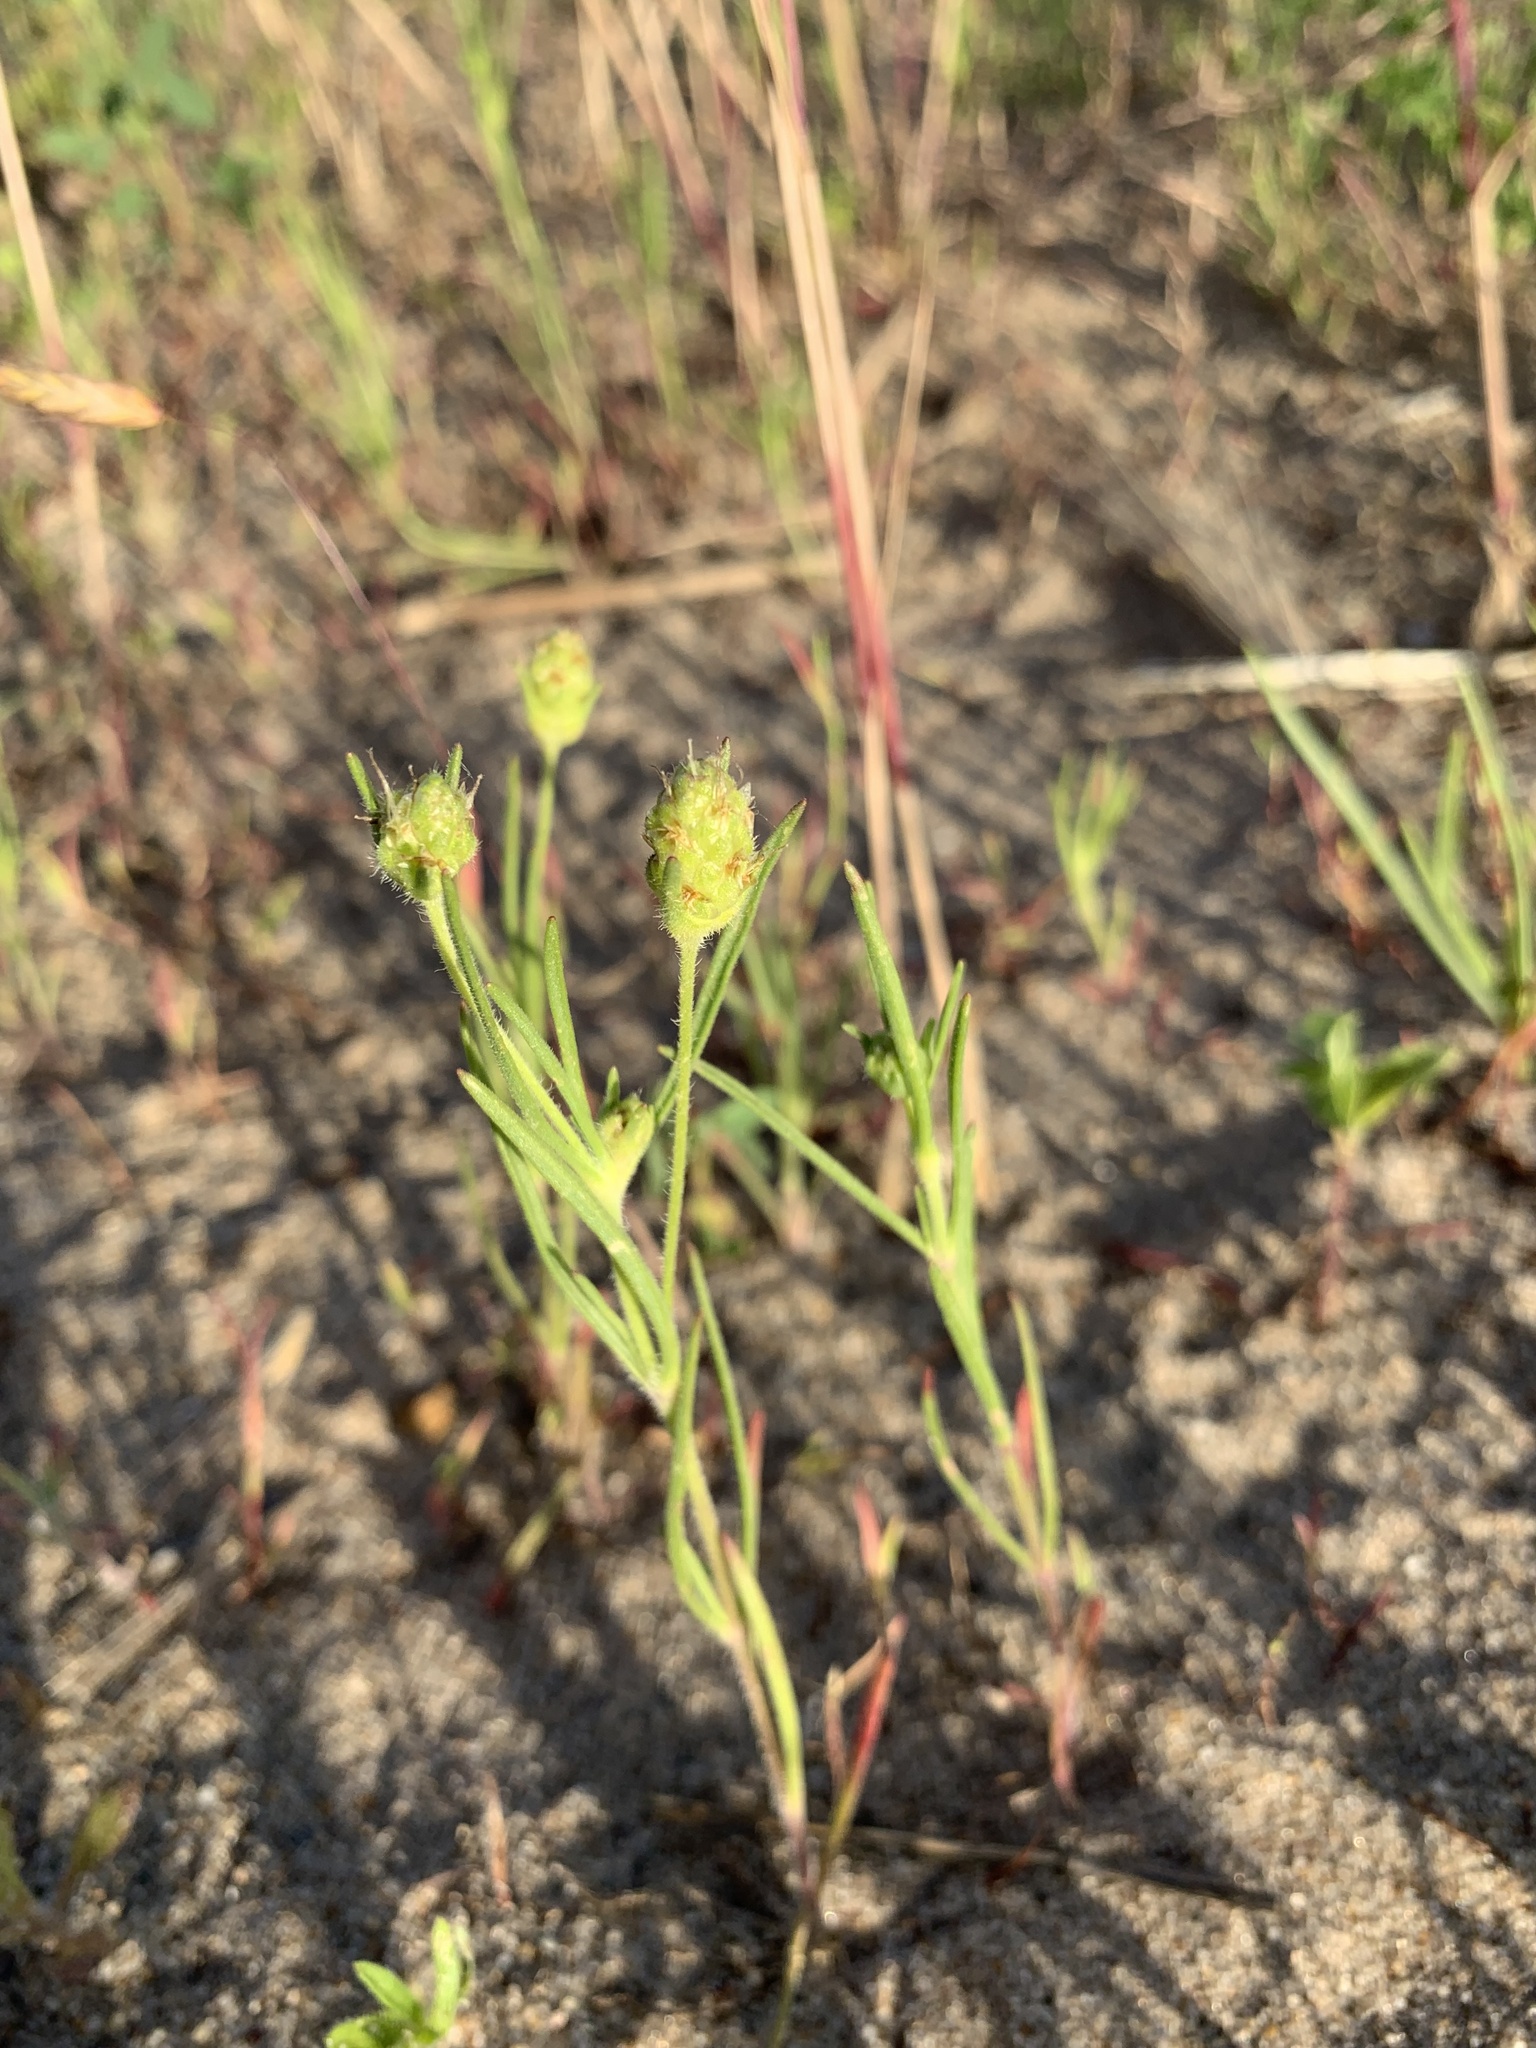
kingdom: Plantae
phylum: Tracheophyta
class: Magnoliopsida
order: Lamiales
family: Plantaginaceae
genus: Plantago
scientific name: Plantago arenaria
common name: Branched plantain
